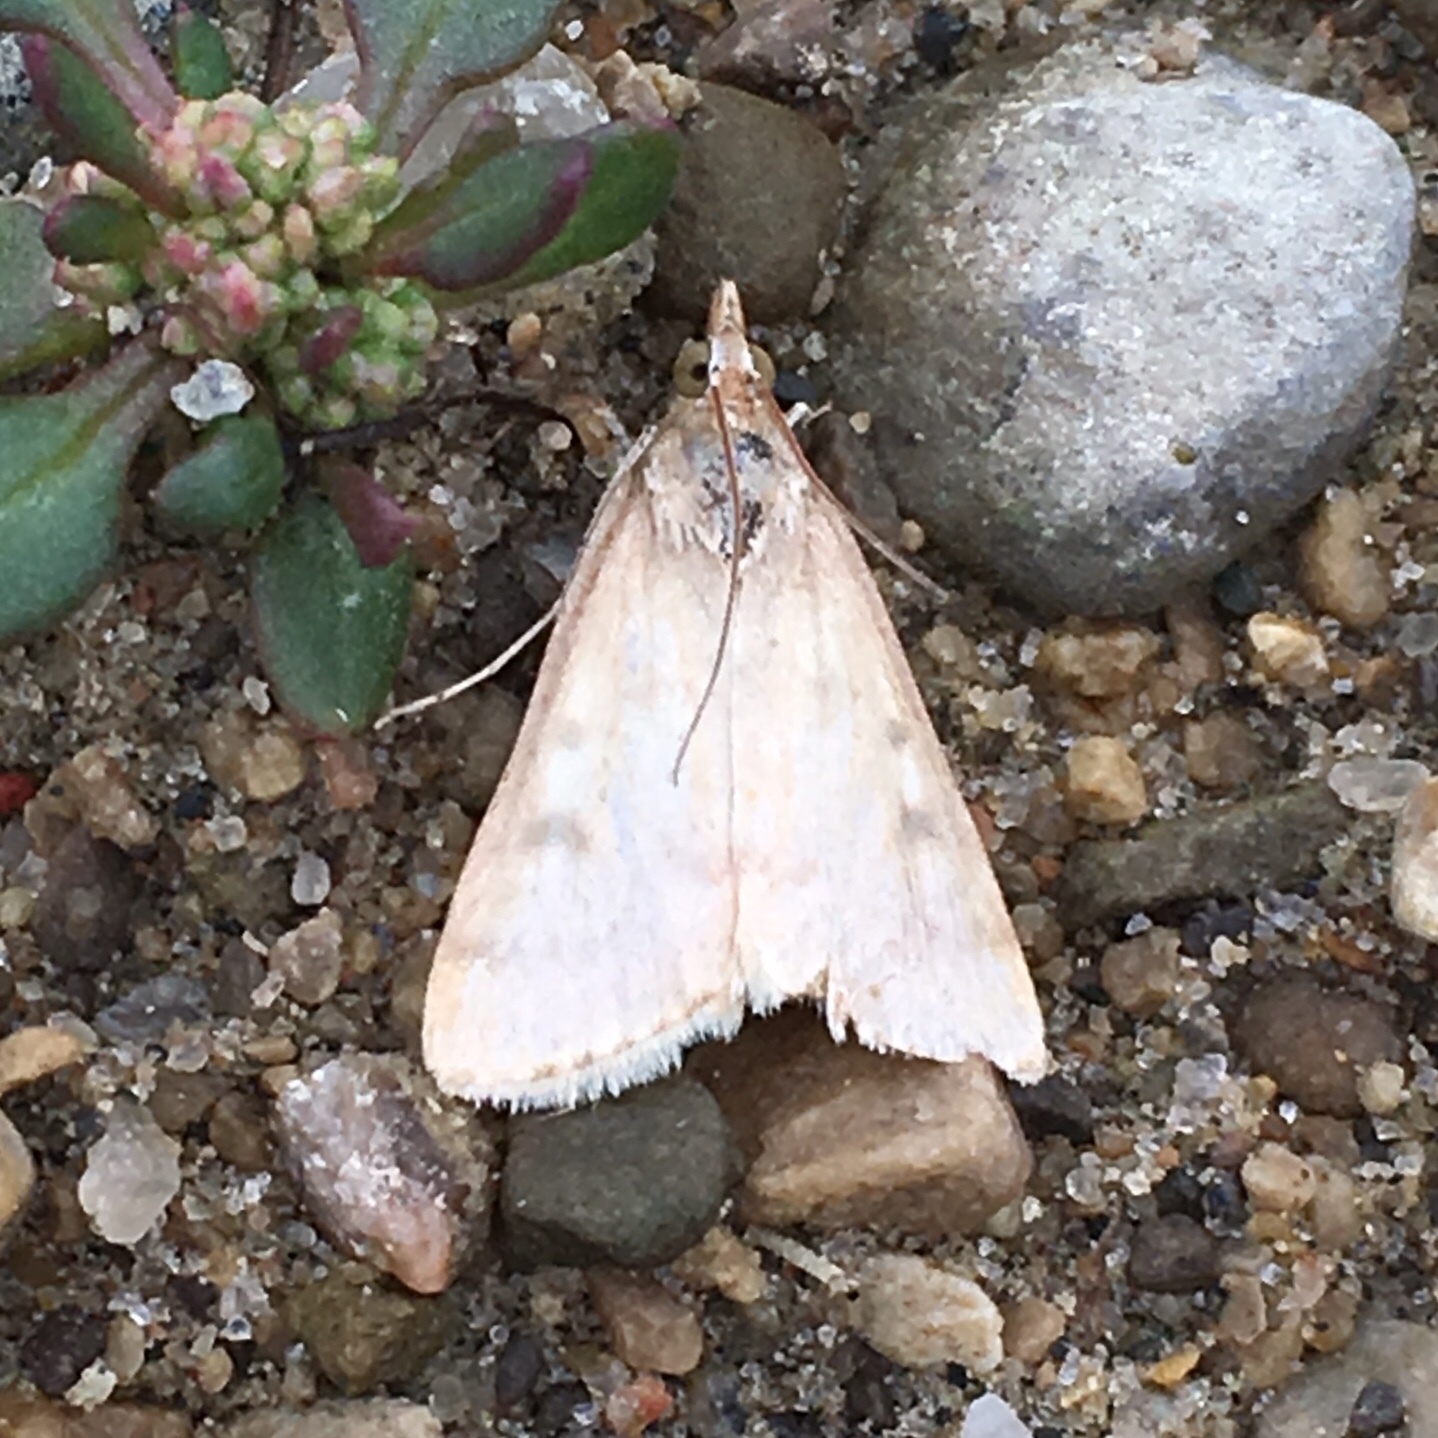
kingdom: Animalia
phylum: Arthropoda
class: Insecta
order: Lepidoptera
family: Crambidae
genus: Achyra
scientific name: Achyra rantalis
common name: Garden webworm
